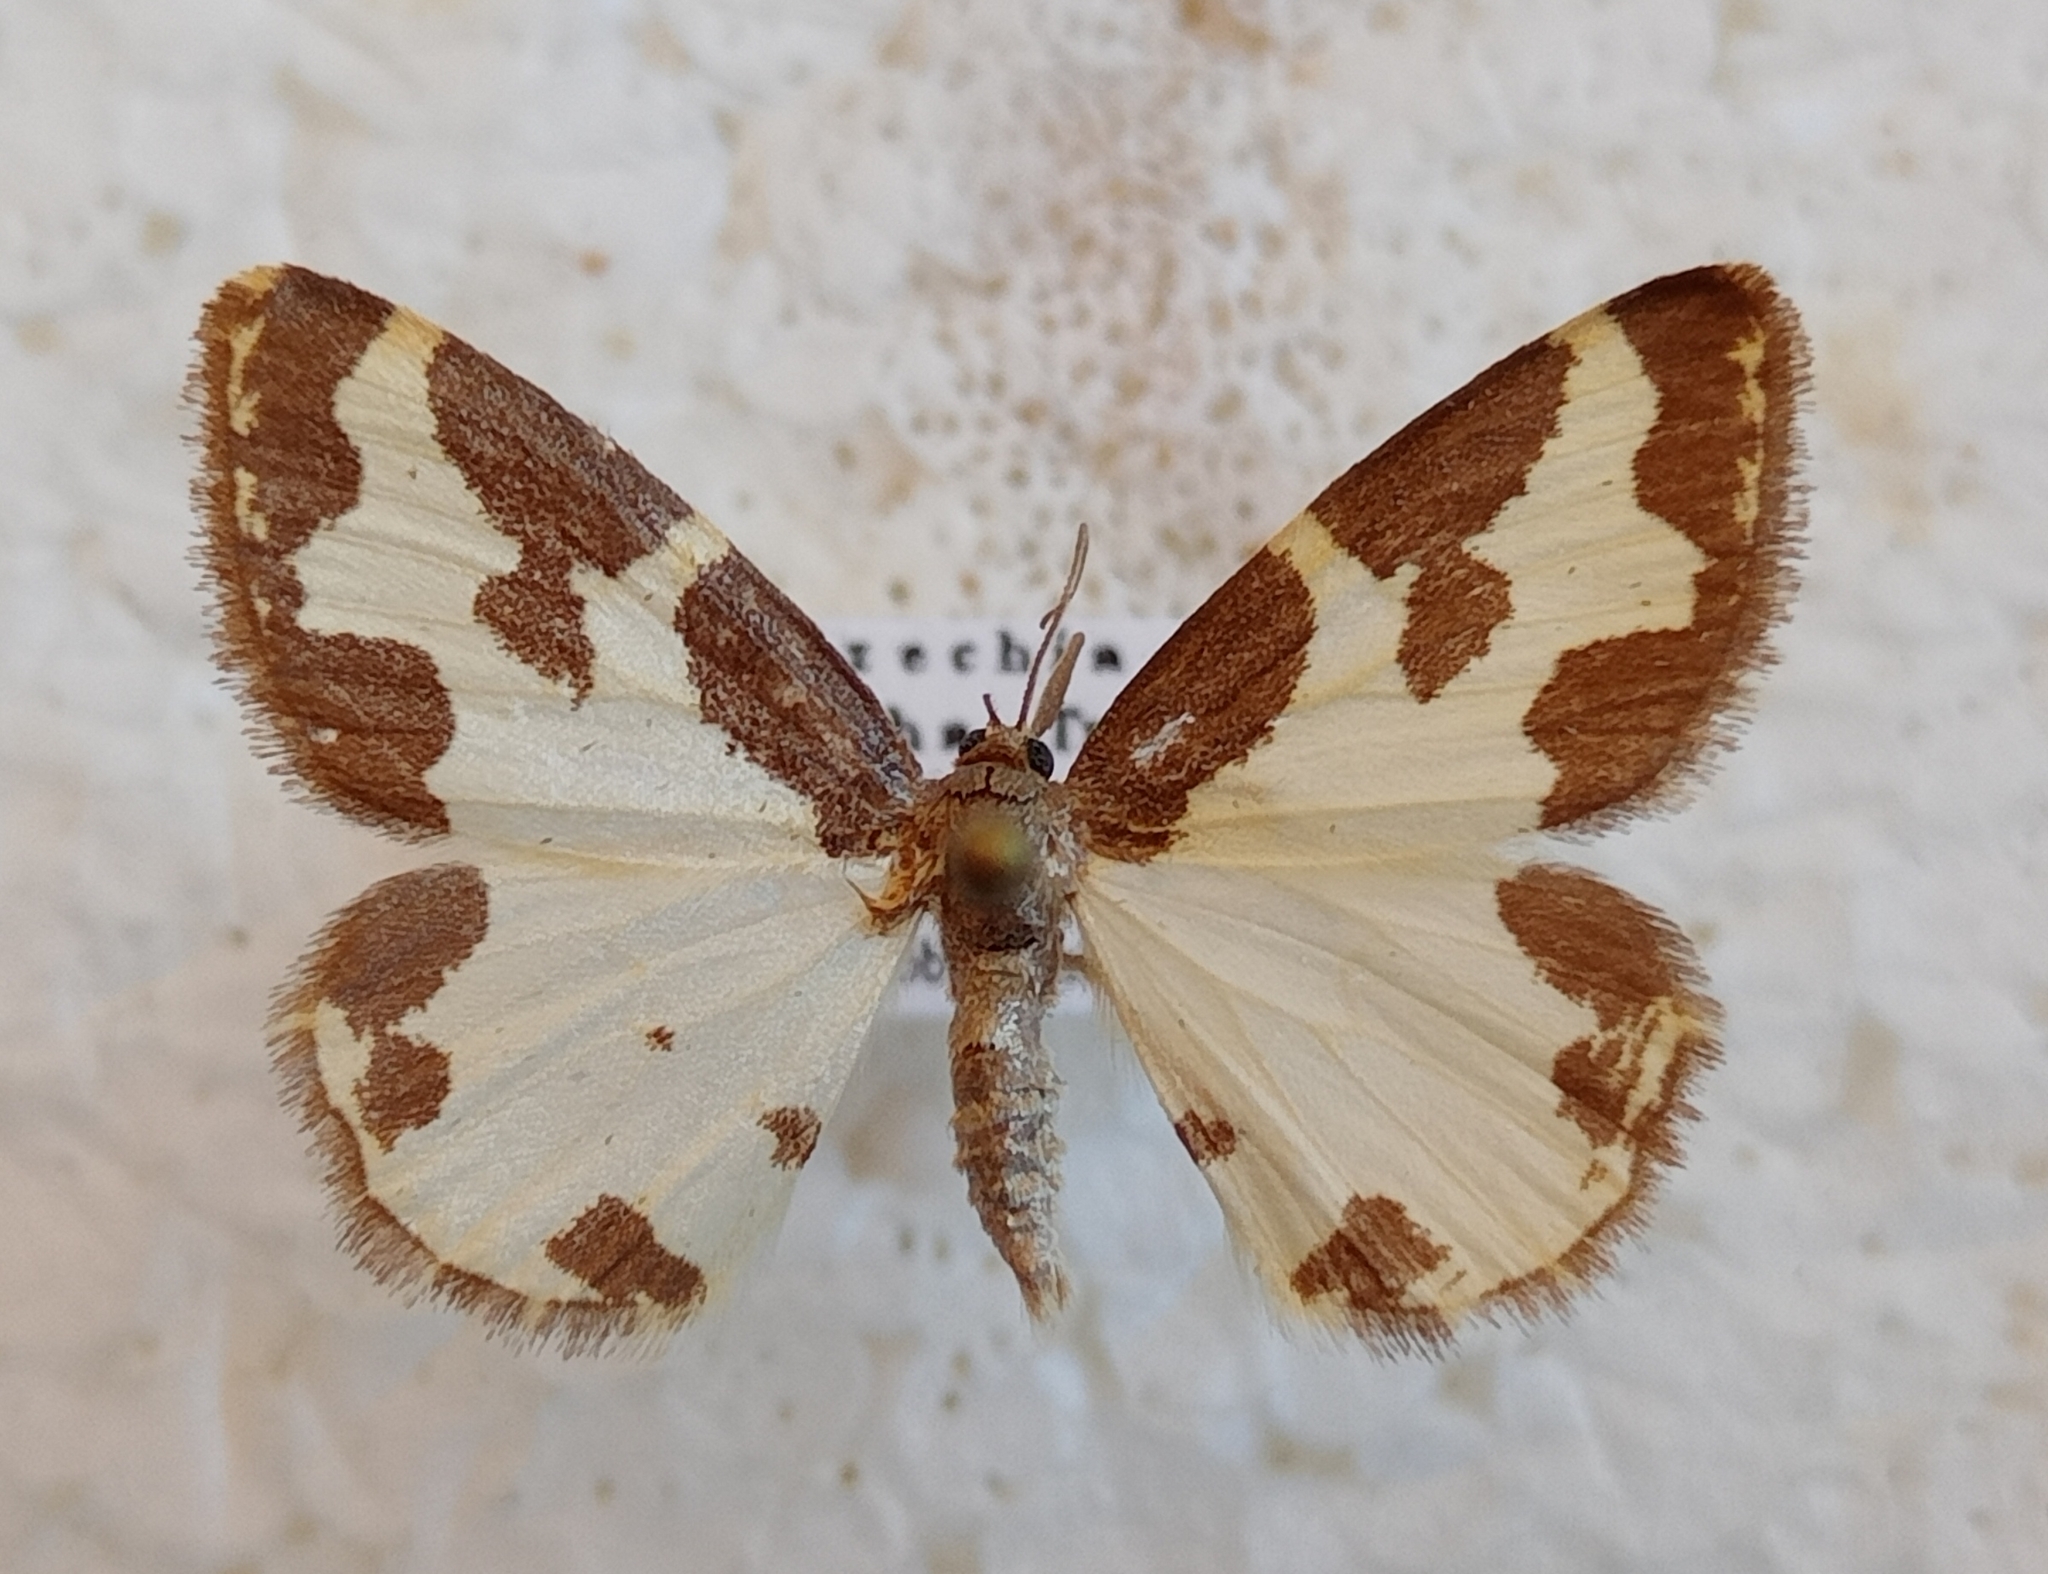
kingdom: Animalia
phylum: Arthropoda
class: Insecta
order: Lepidoptera
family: Geometridae
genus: Lomaspilis
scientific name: Lomaspilis marginata
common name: Clouded border
